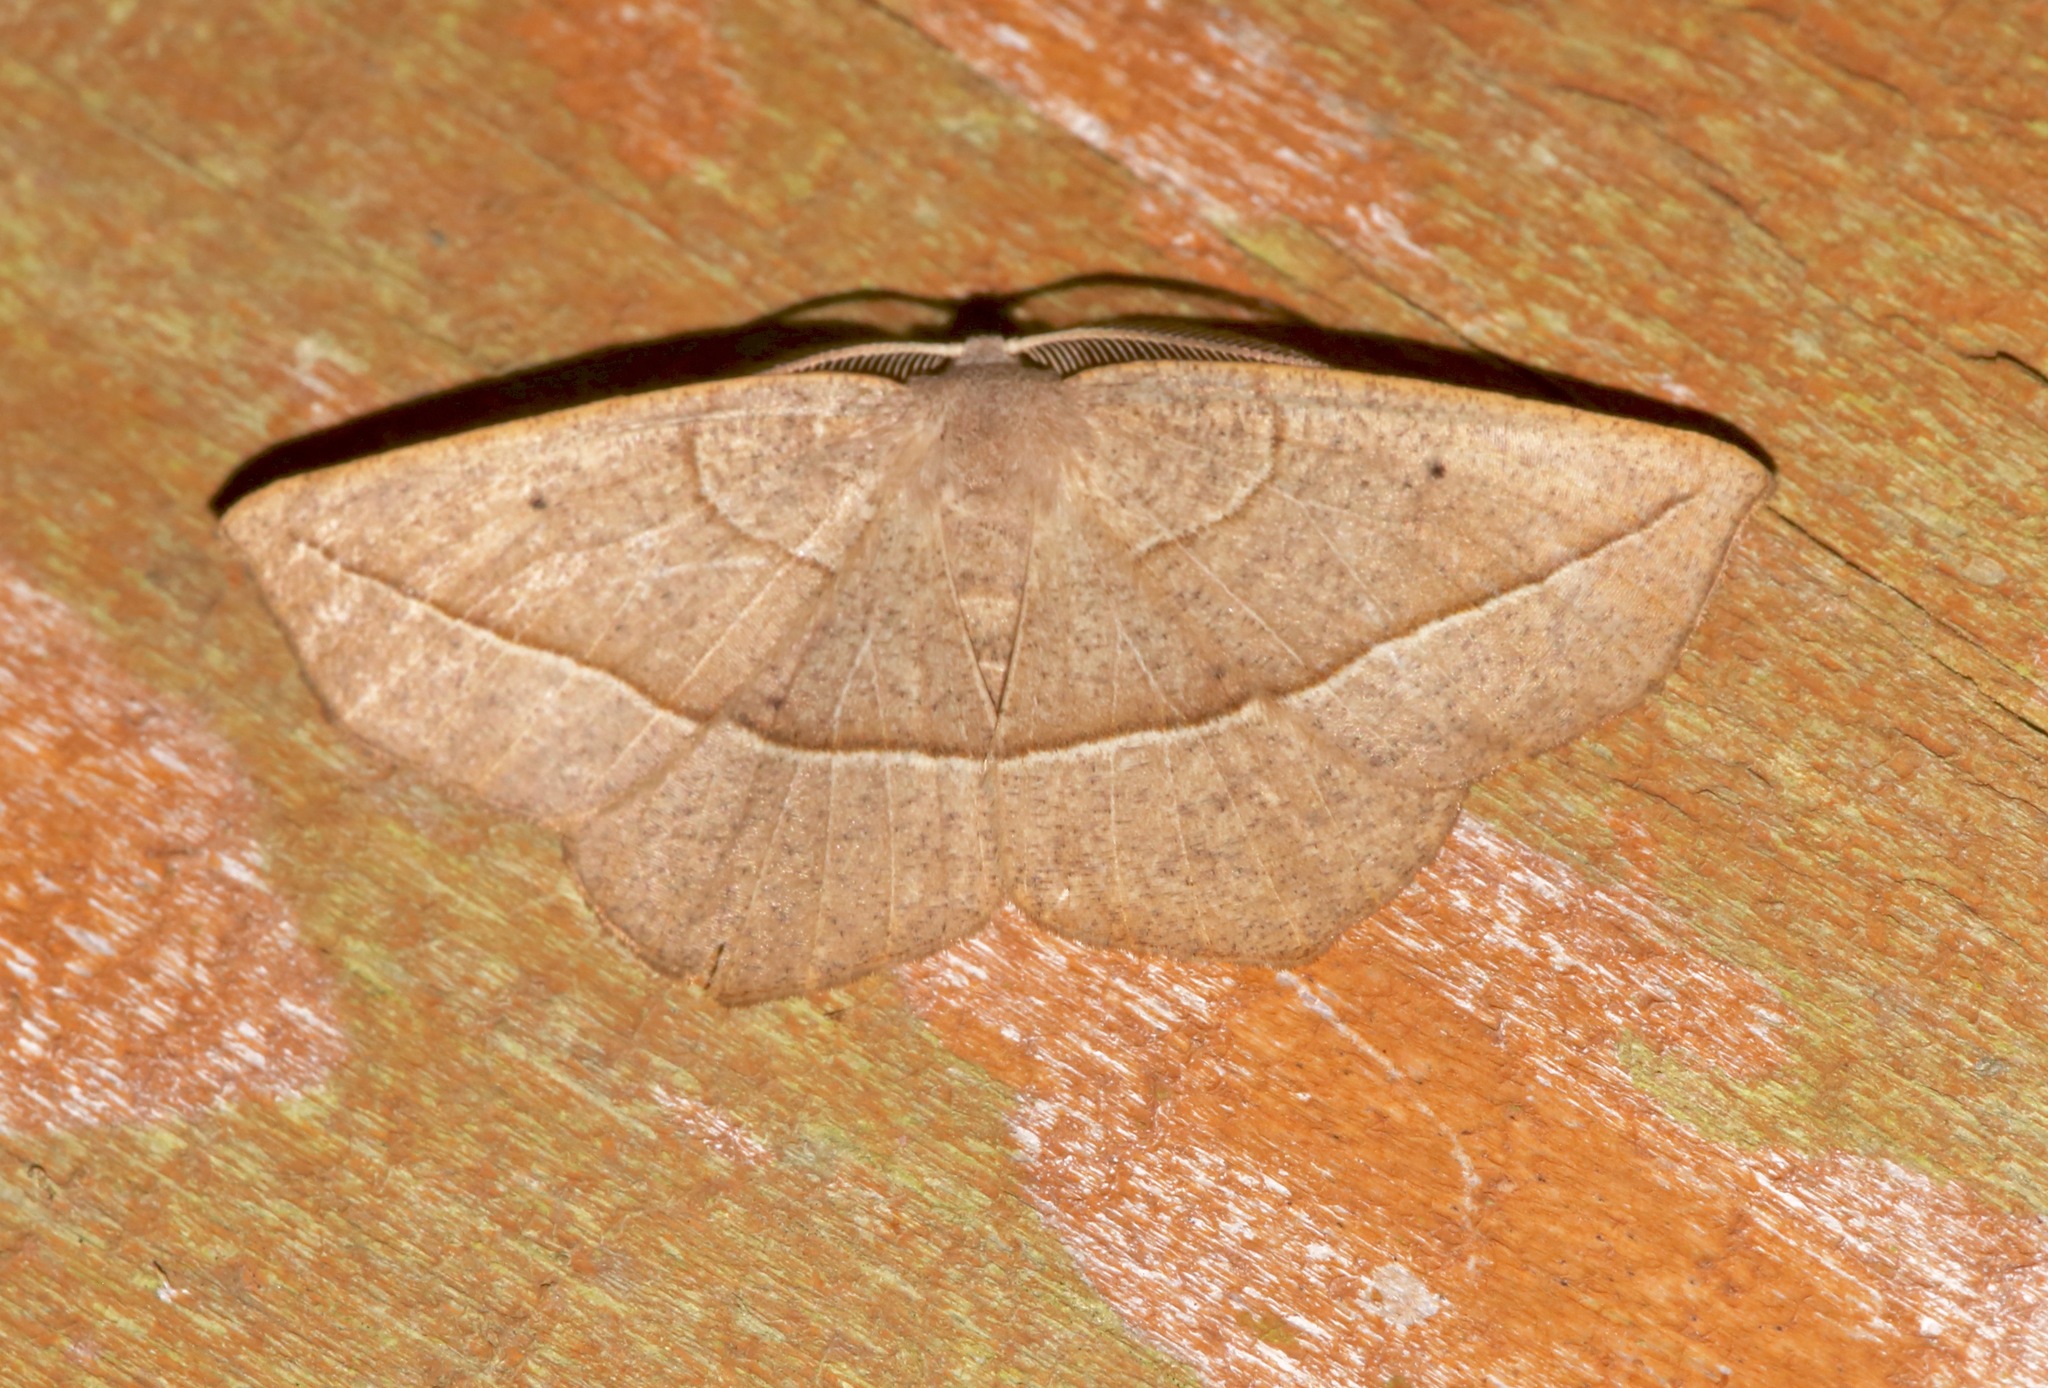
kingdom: Animalia
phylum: Arthropoda
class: Insecta
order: Lepidoptera
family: Geometridae
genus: Eusarca
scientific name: Eusarca confusaria
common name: Confused eusarca
